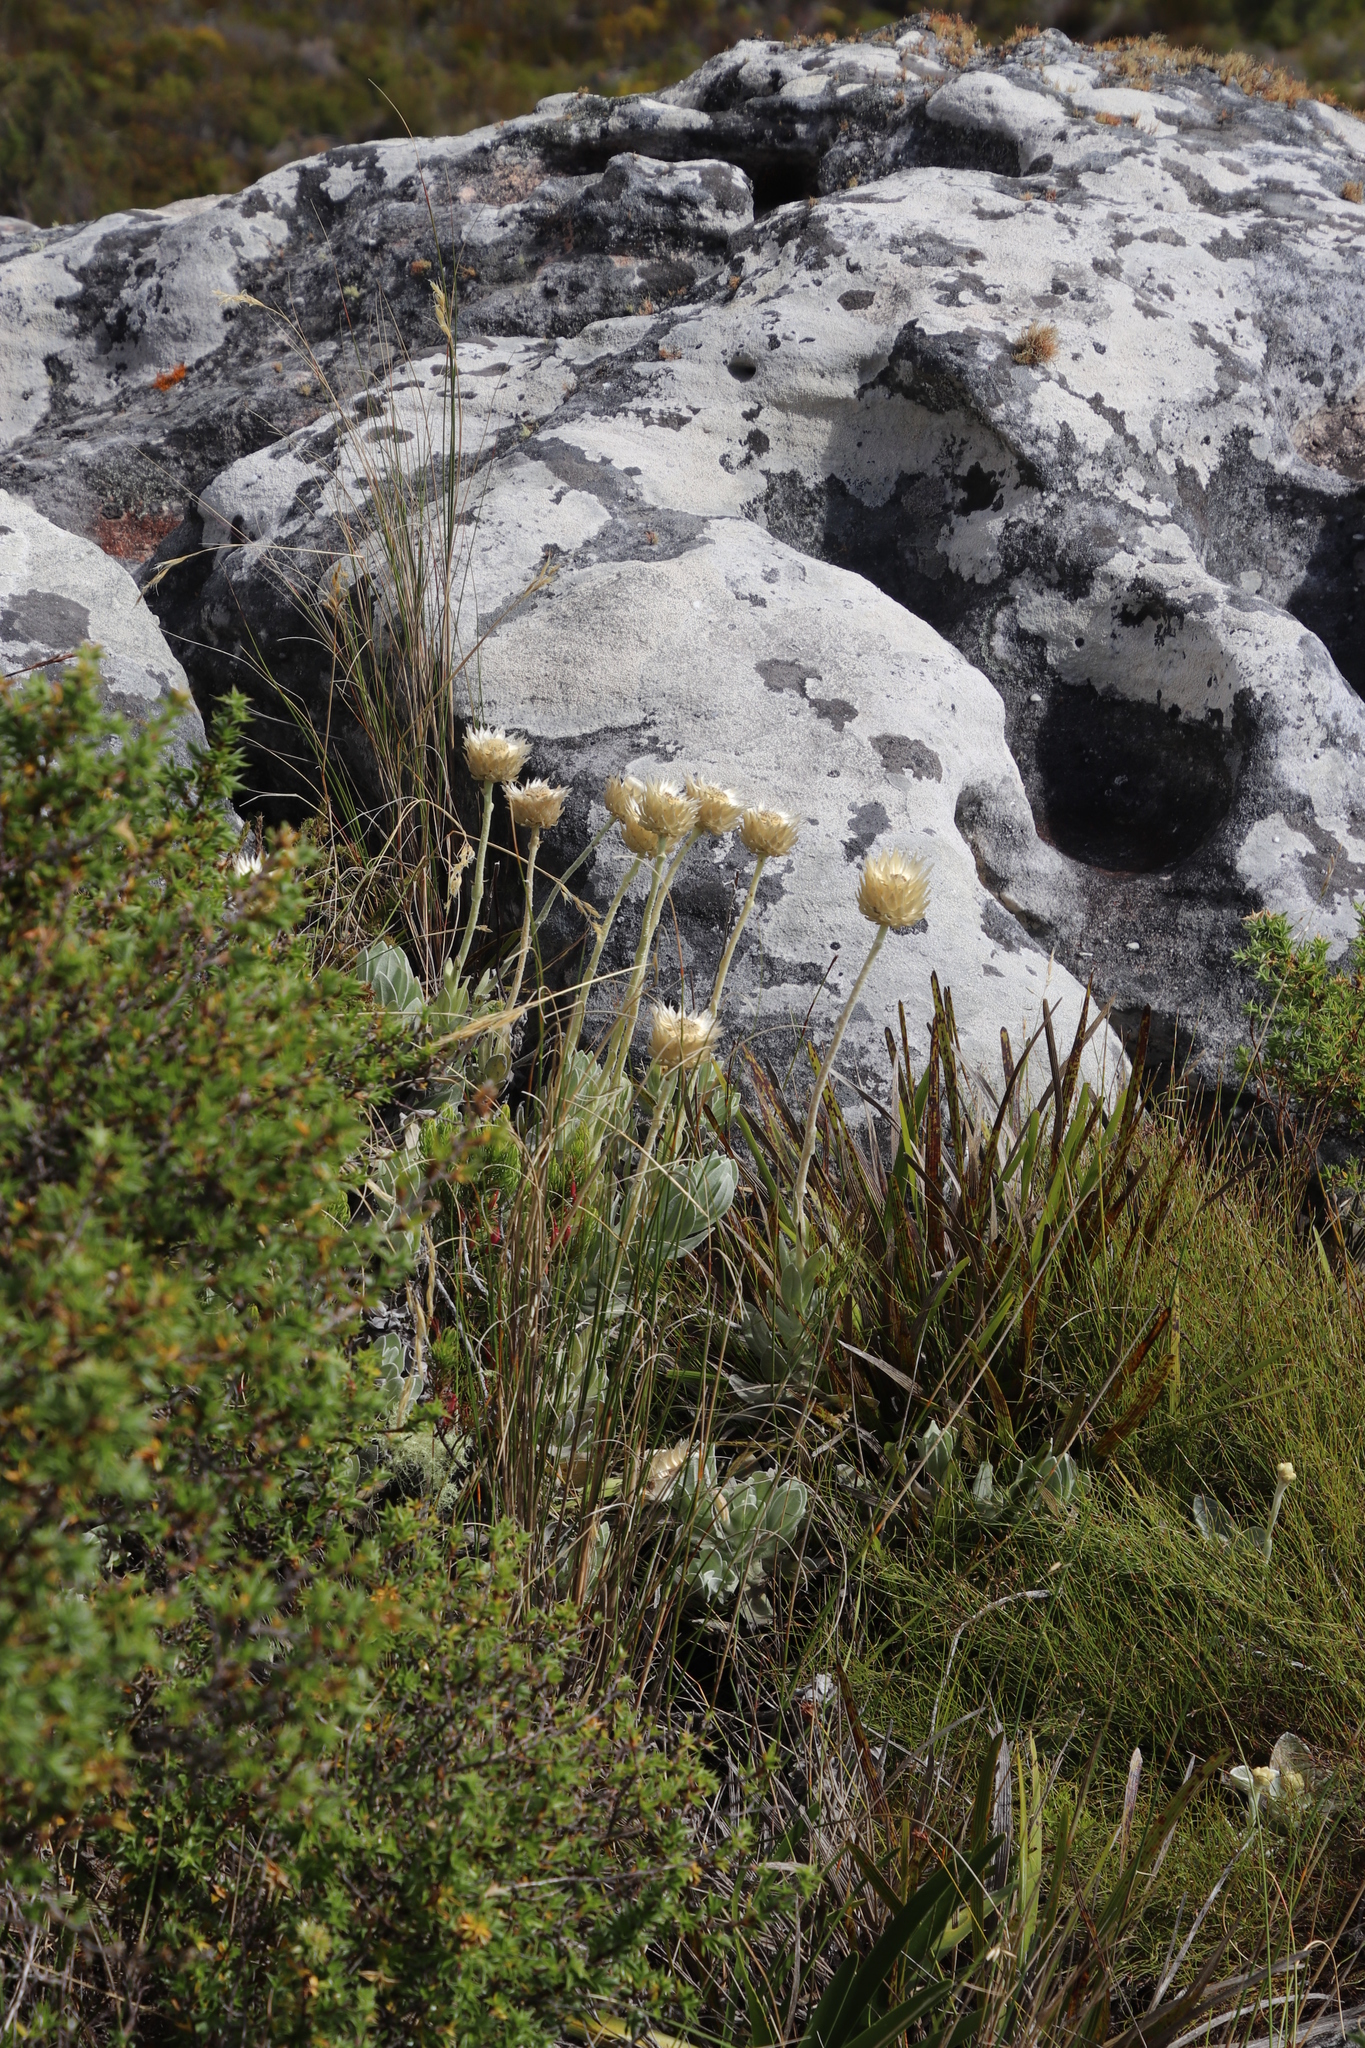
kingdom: Plantae
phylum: Tracheophyta
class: Magnoliopsida
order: Asterales
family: Asteraceae
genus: Syncarpha
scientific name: Syncarpha speciosissima
